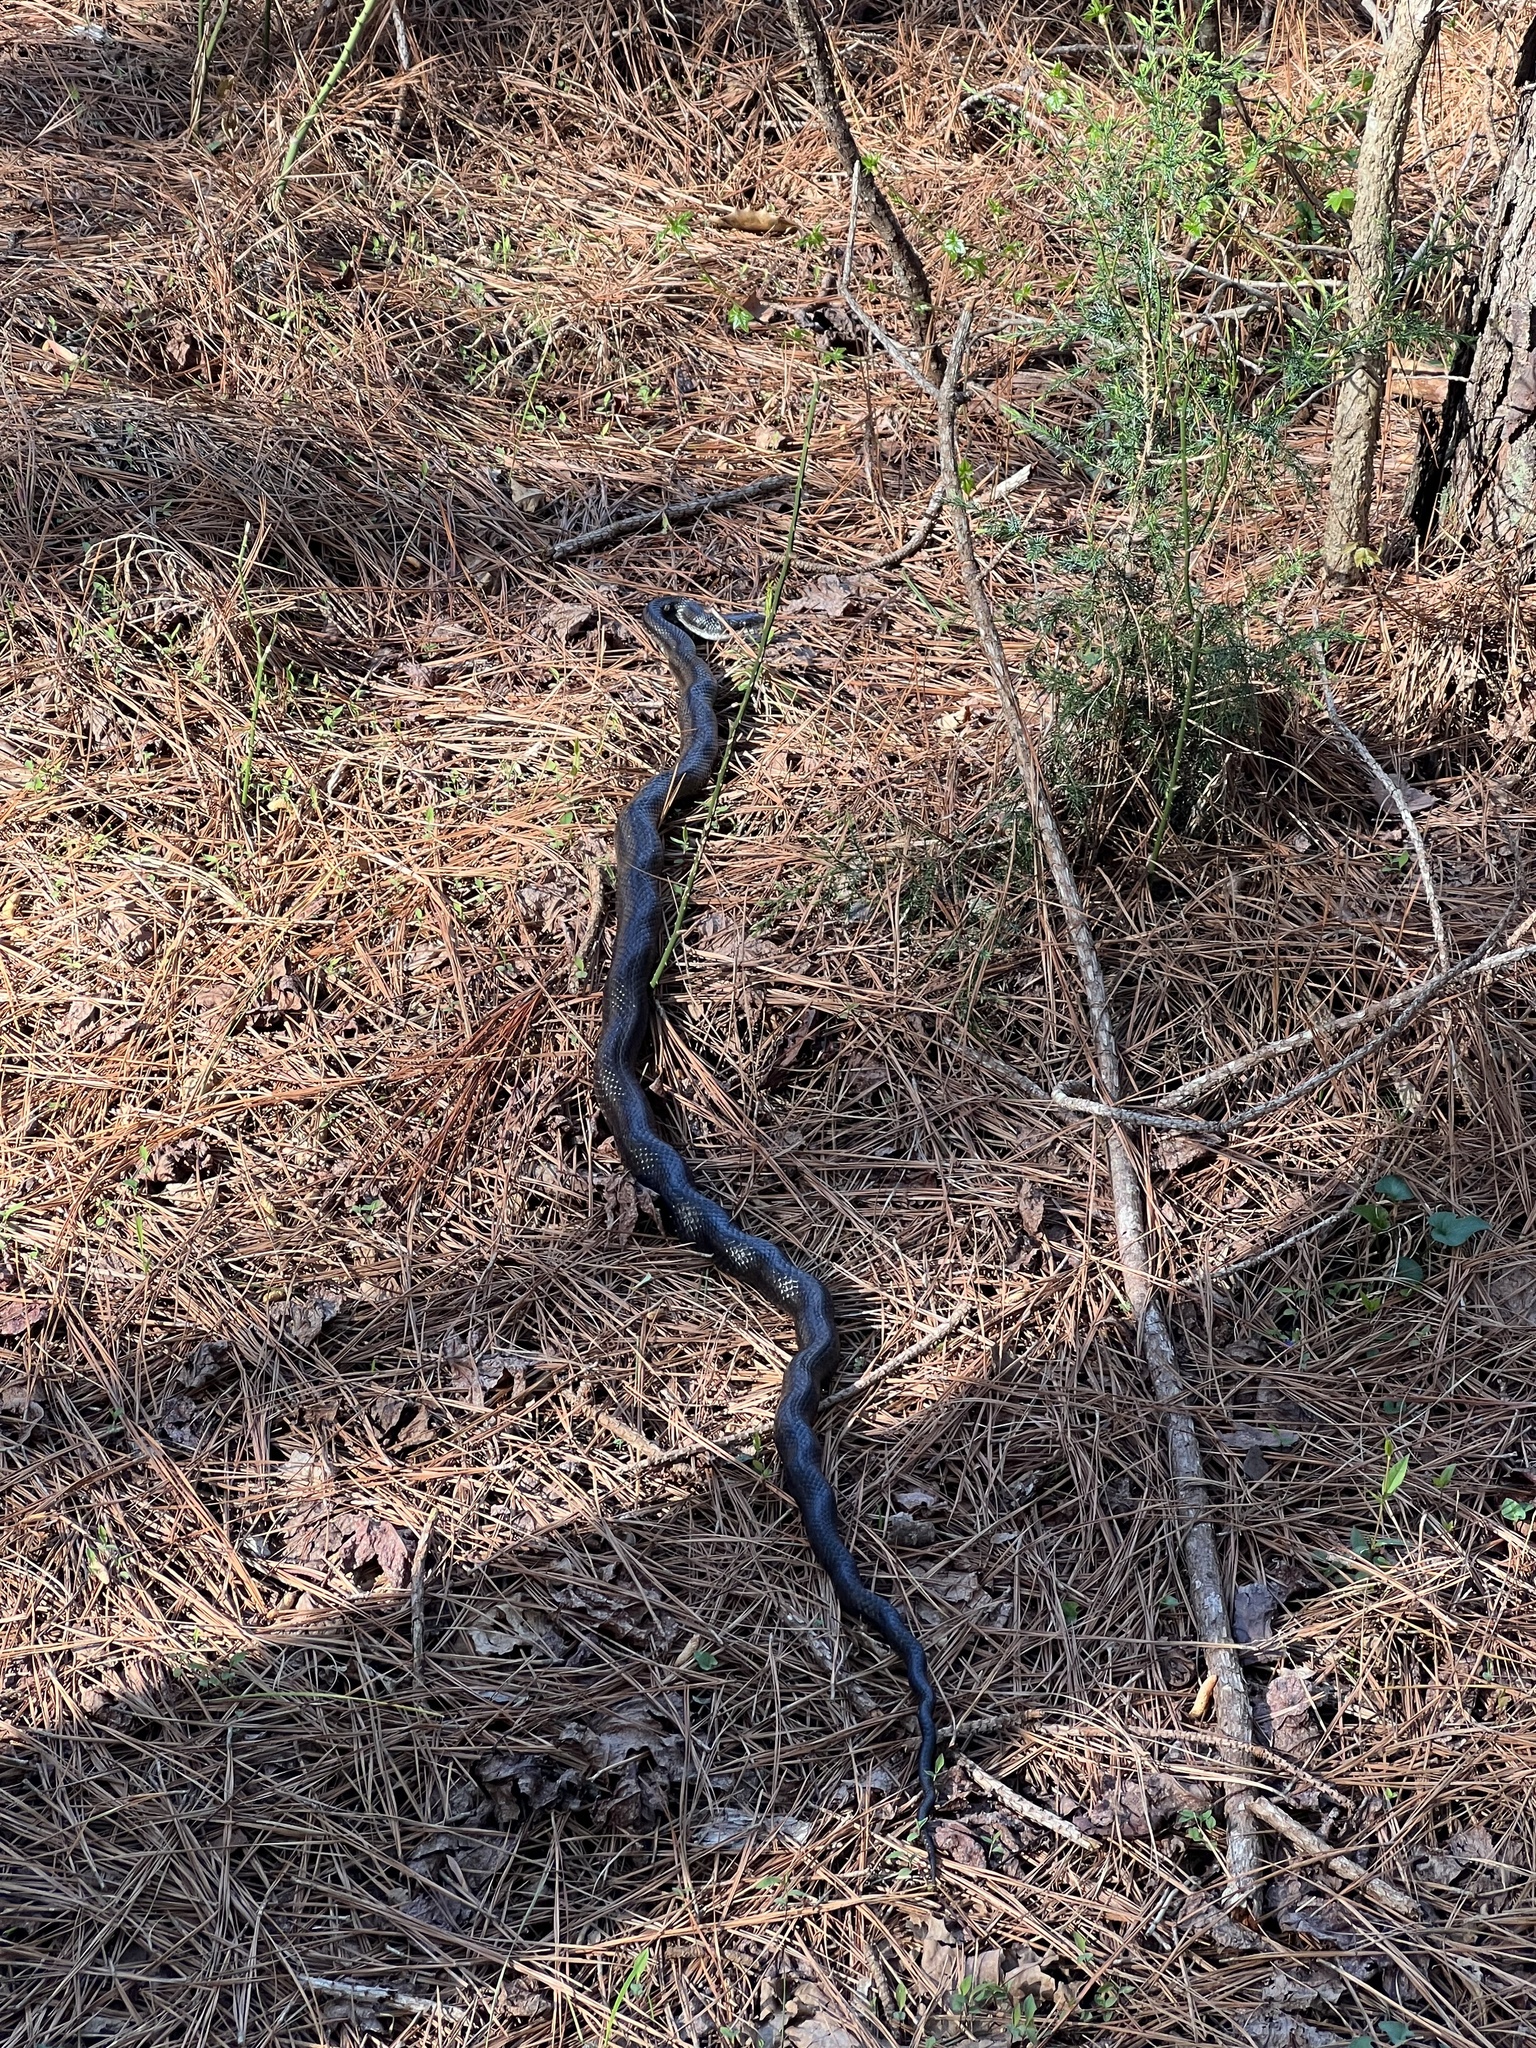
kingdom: Animalia
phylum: Chordata
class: Squamata
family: Colubridae
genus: Pantherophis
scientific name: Pantherophis
